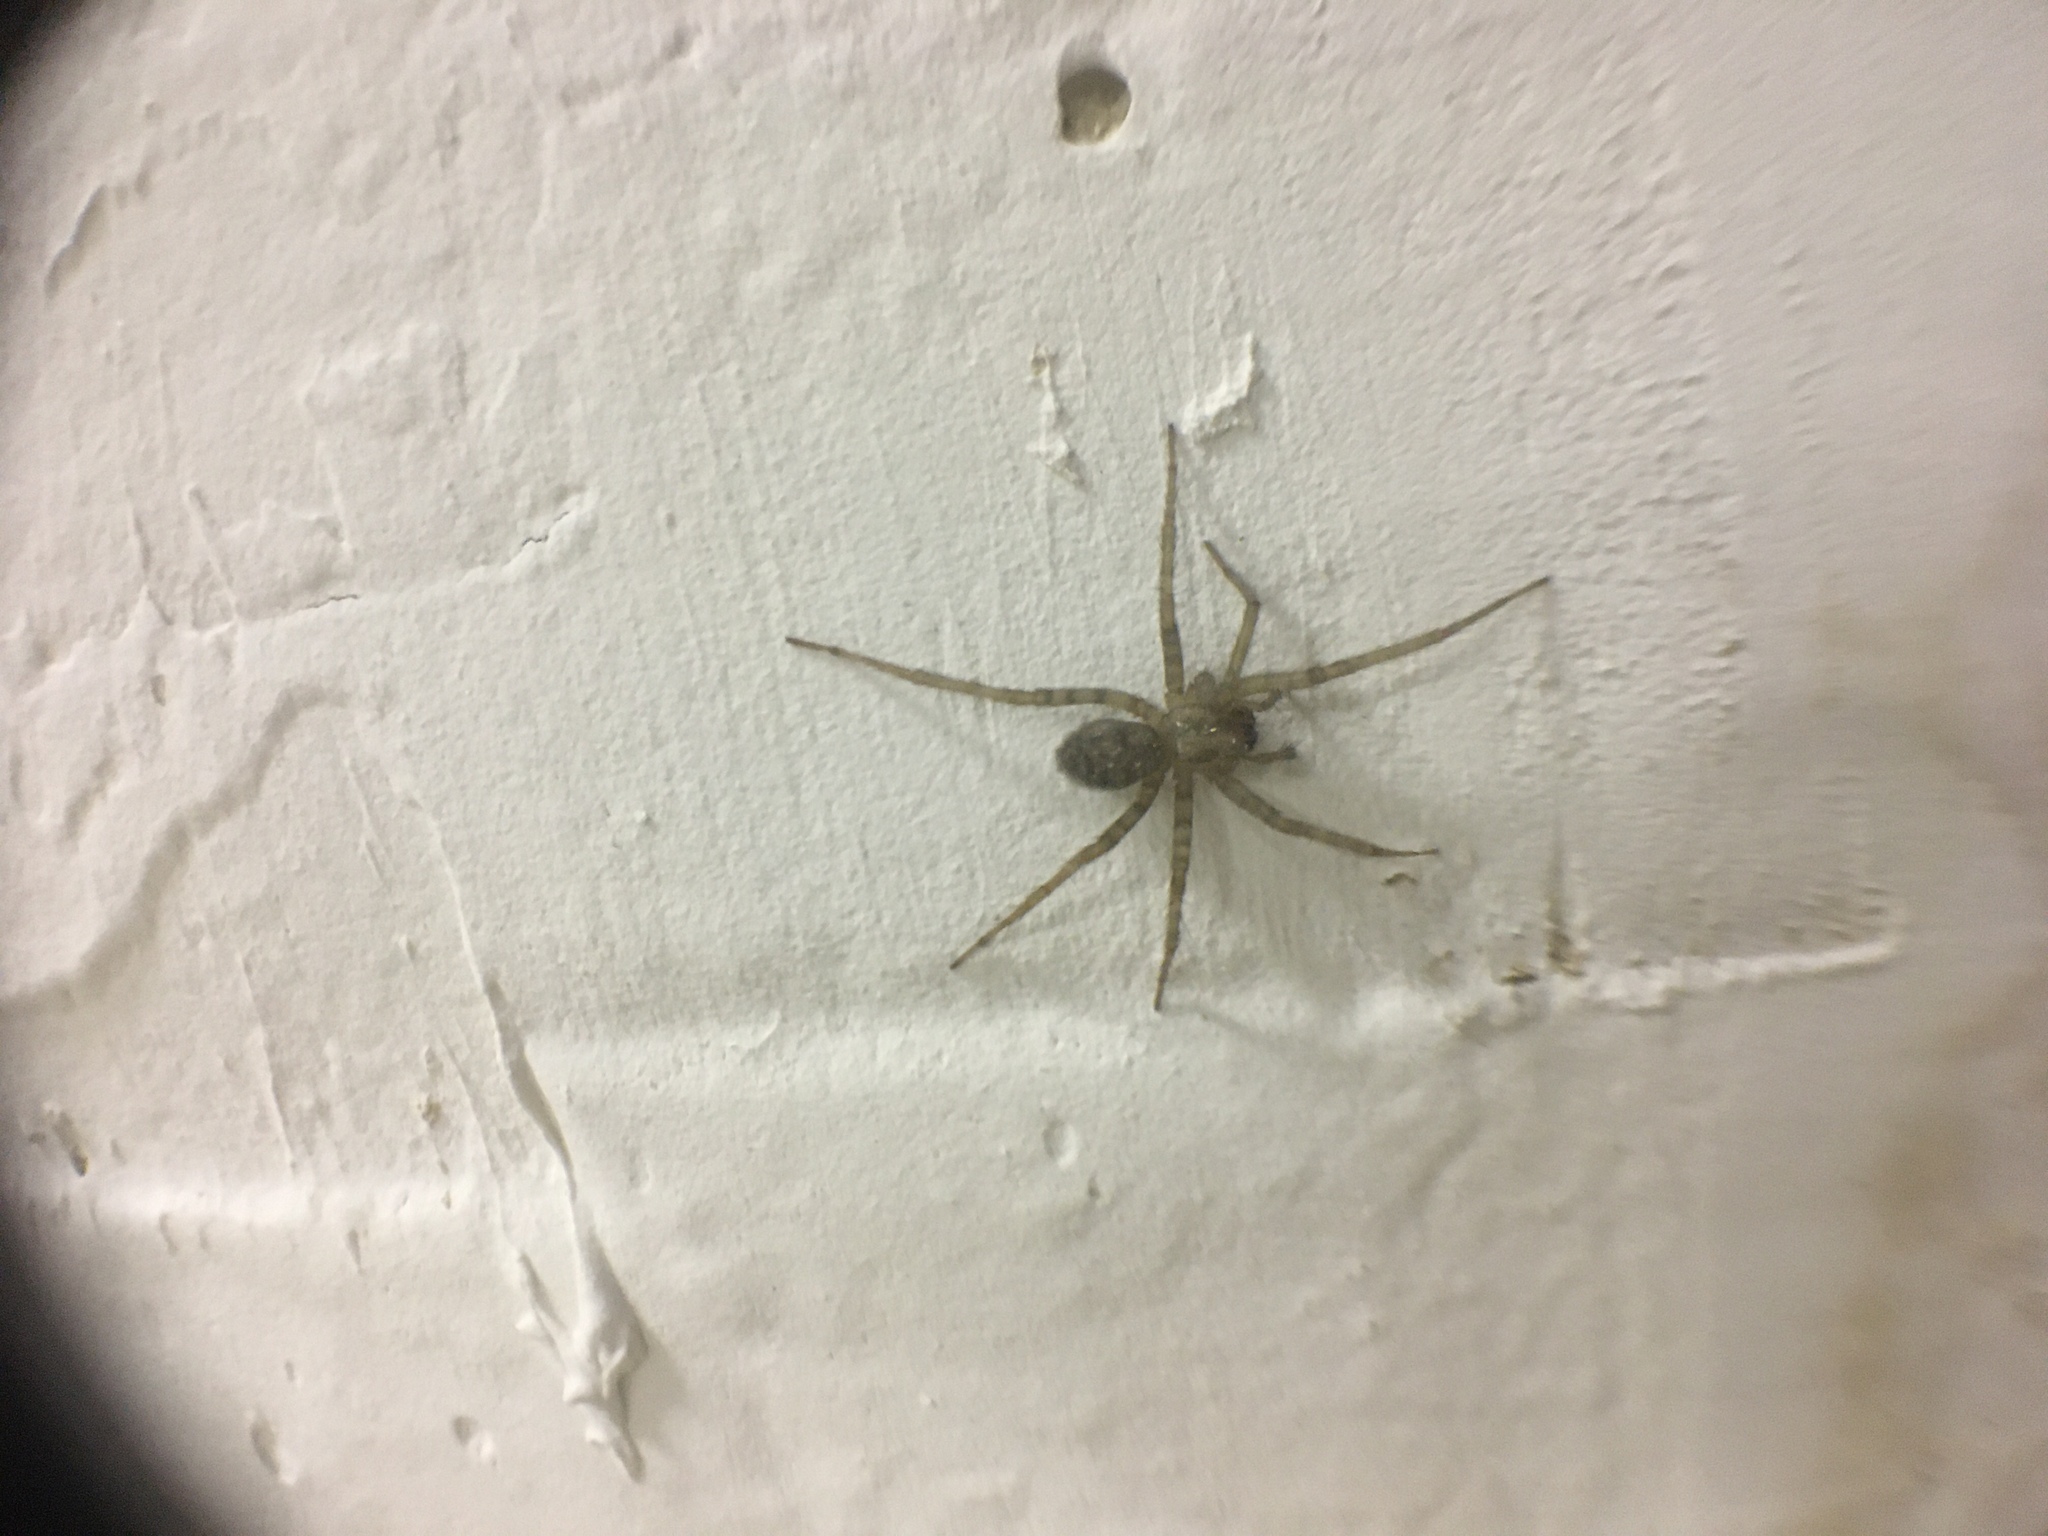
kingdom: Animalia
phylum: Arthropoda
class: Arachnida
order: Araneae
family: Agelenidae
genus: Tegenaria
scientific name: Tegenaria domestica
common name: Barn funnel weaver
